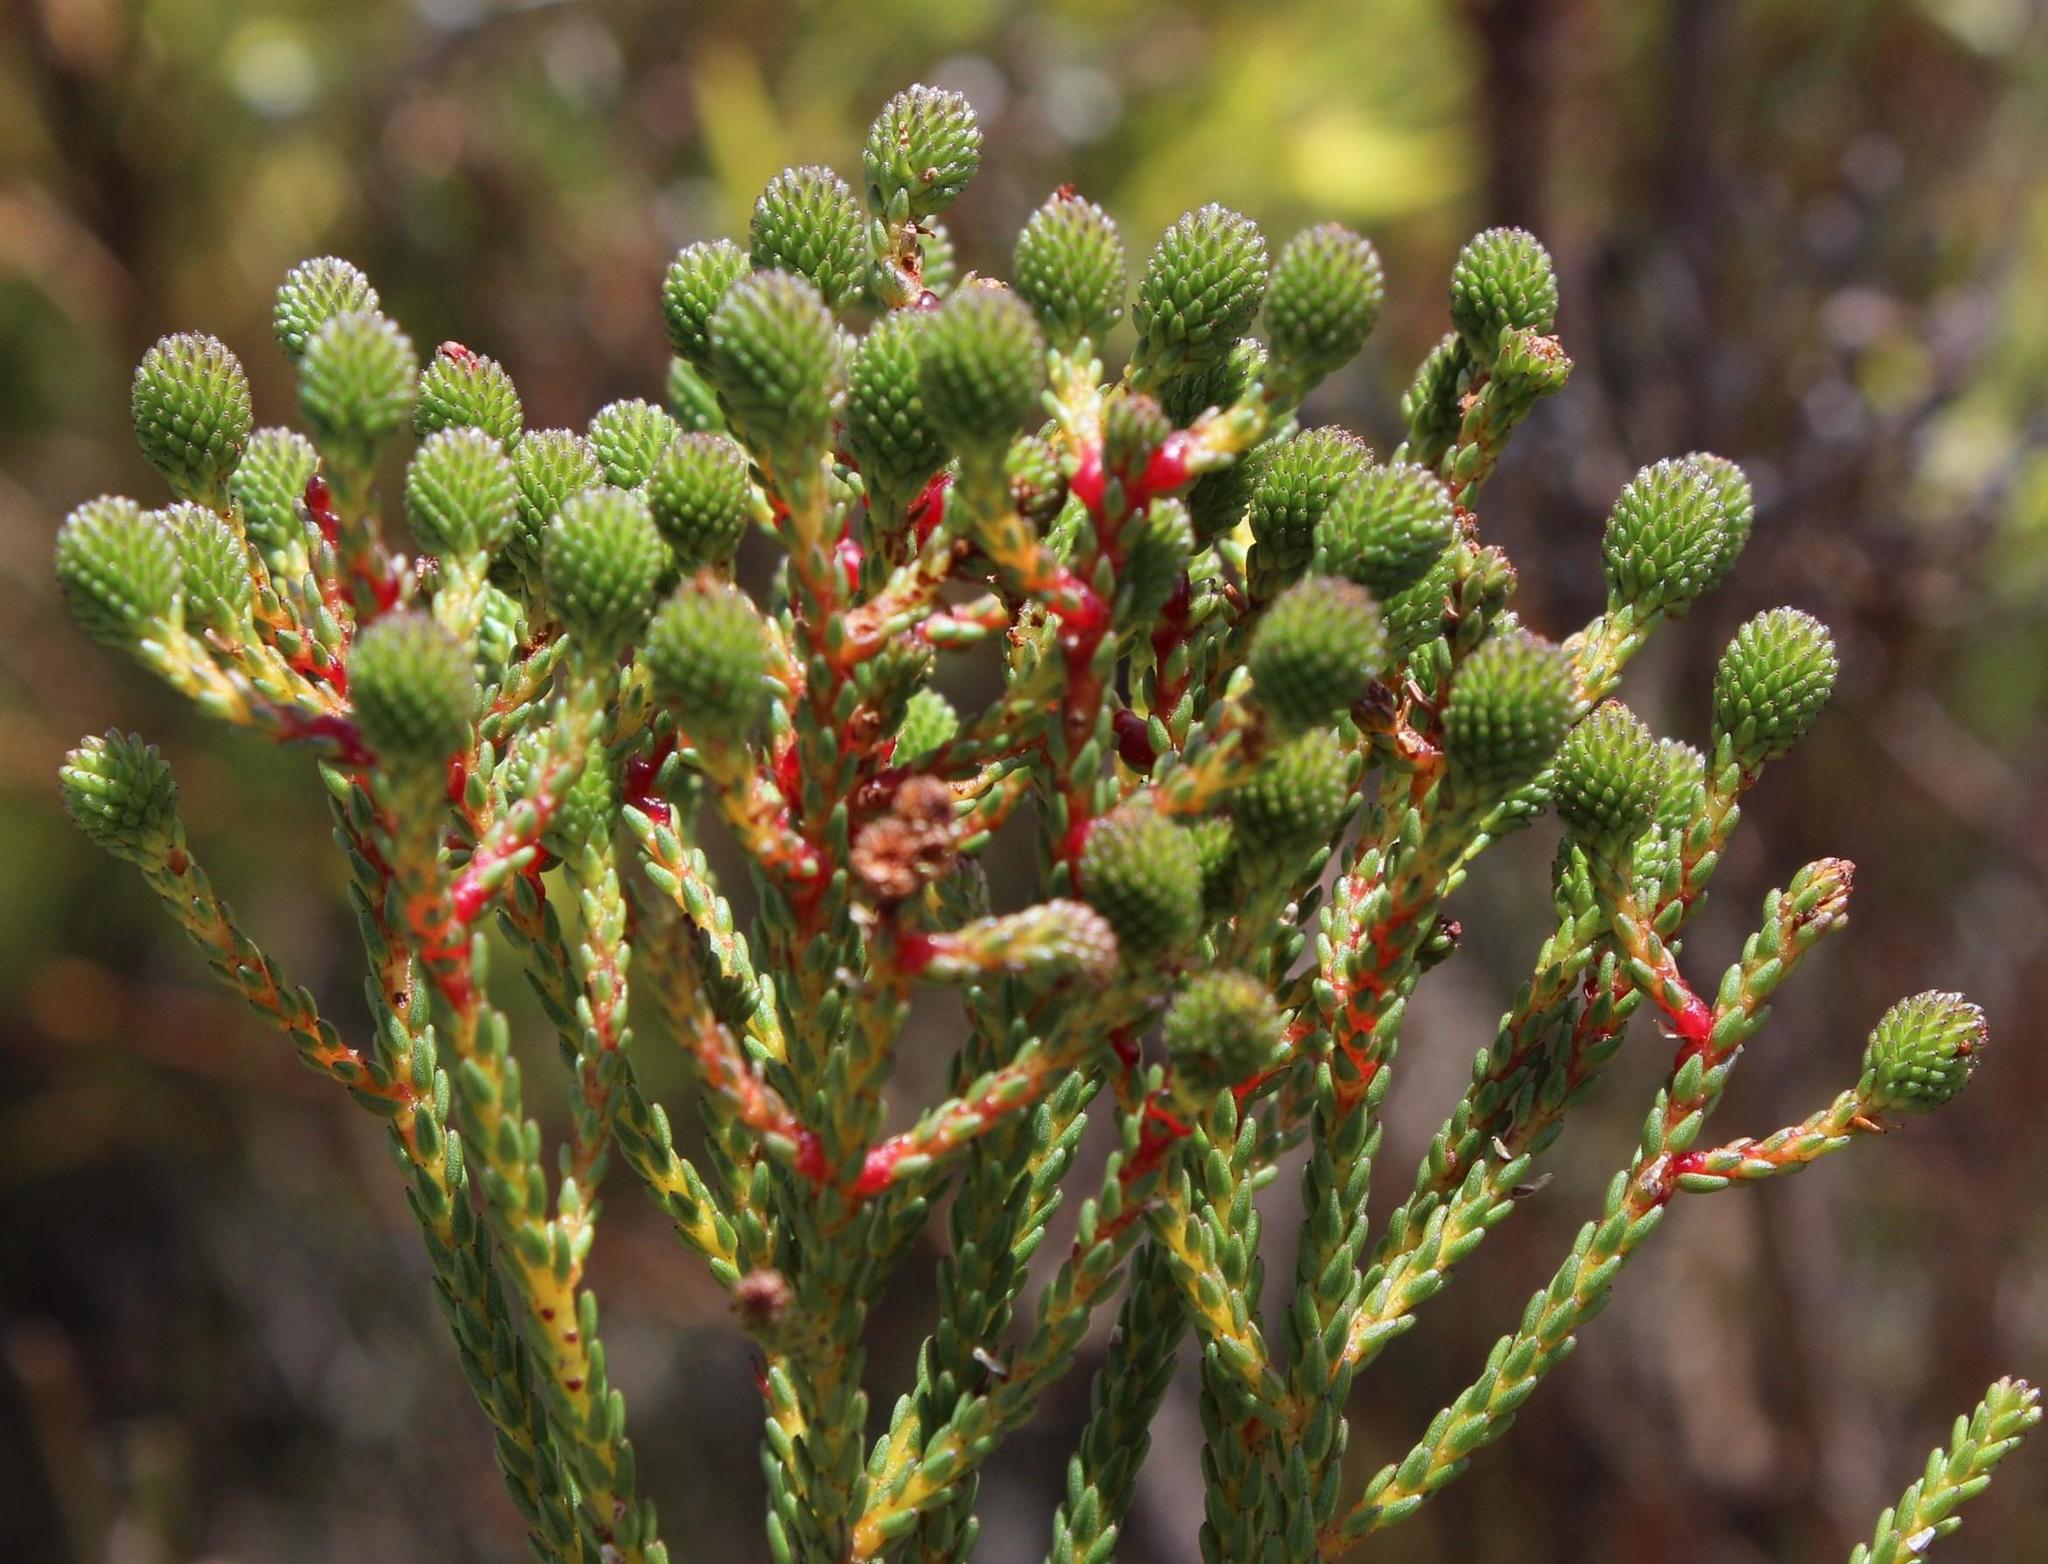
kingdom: Plantae
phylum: Tracheophyta
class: Magnoliopsida
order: Bruniales
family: Bruniaceae
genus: Berzelia
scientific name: Berzelia abrotanoides
